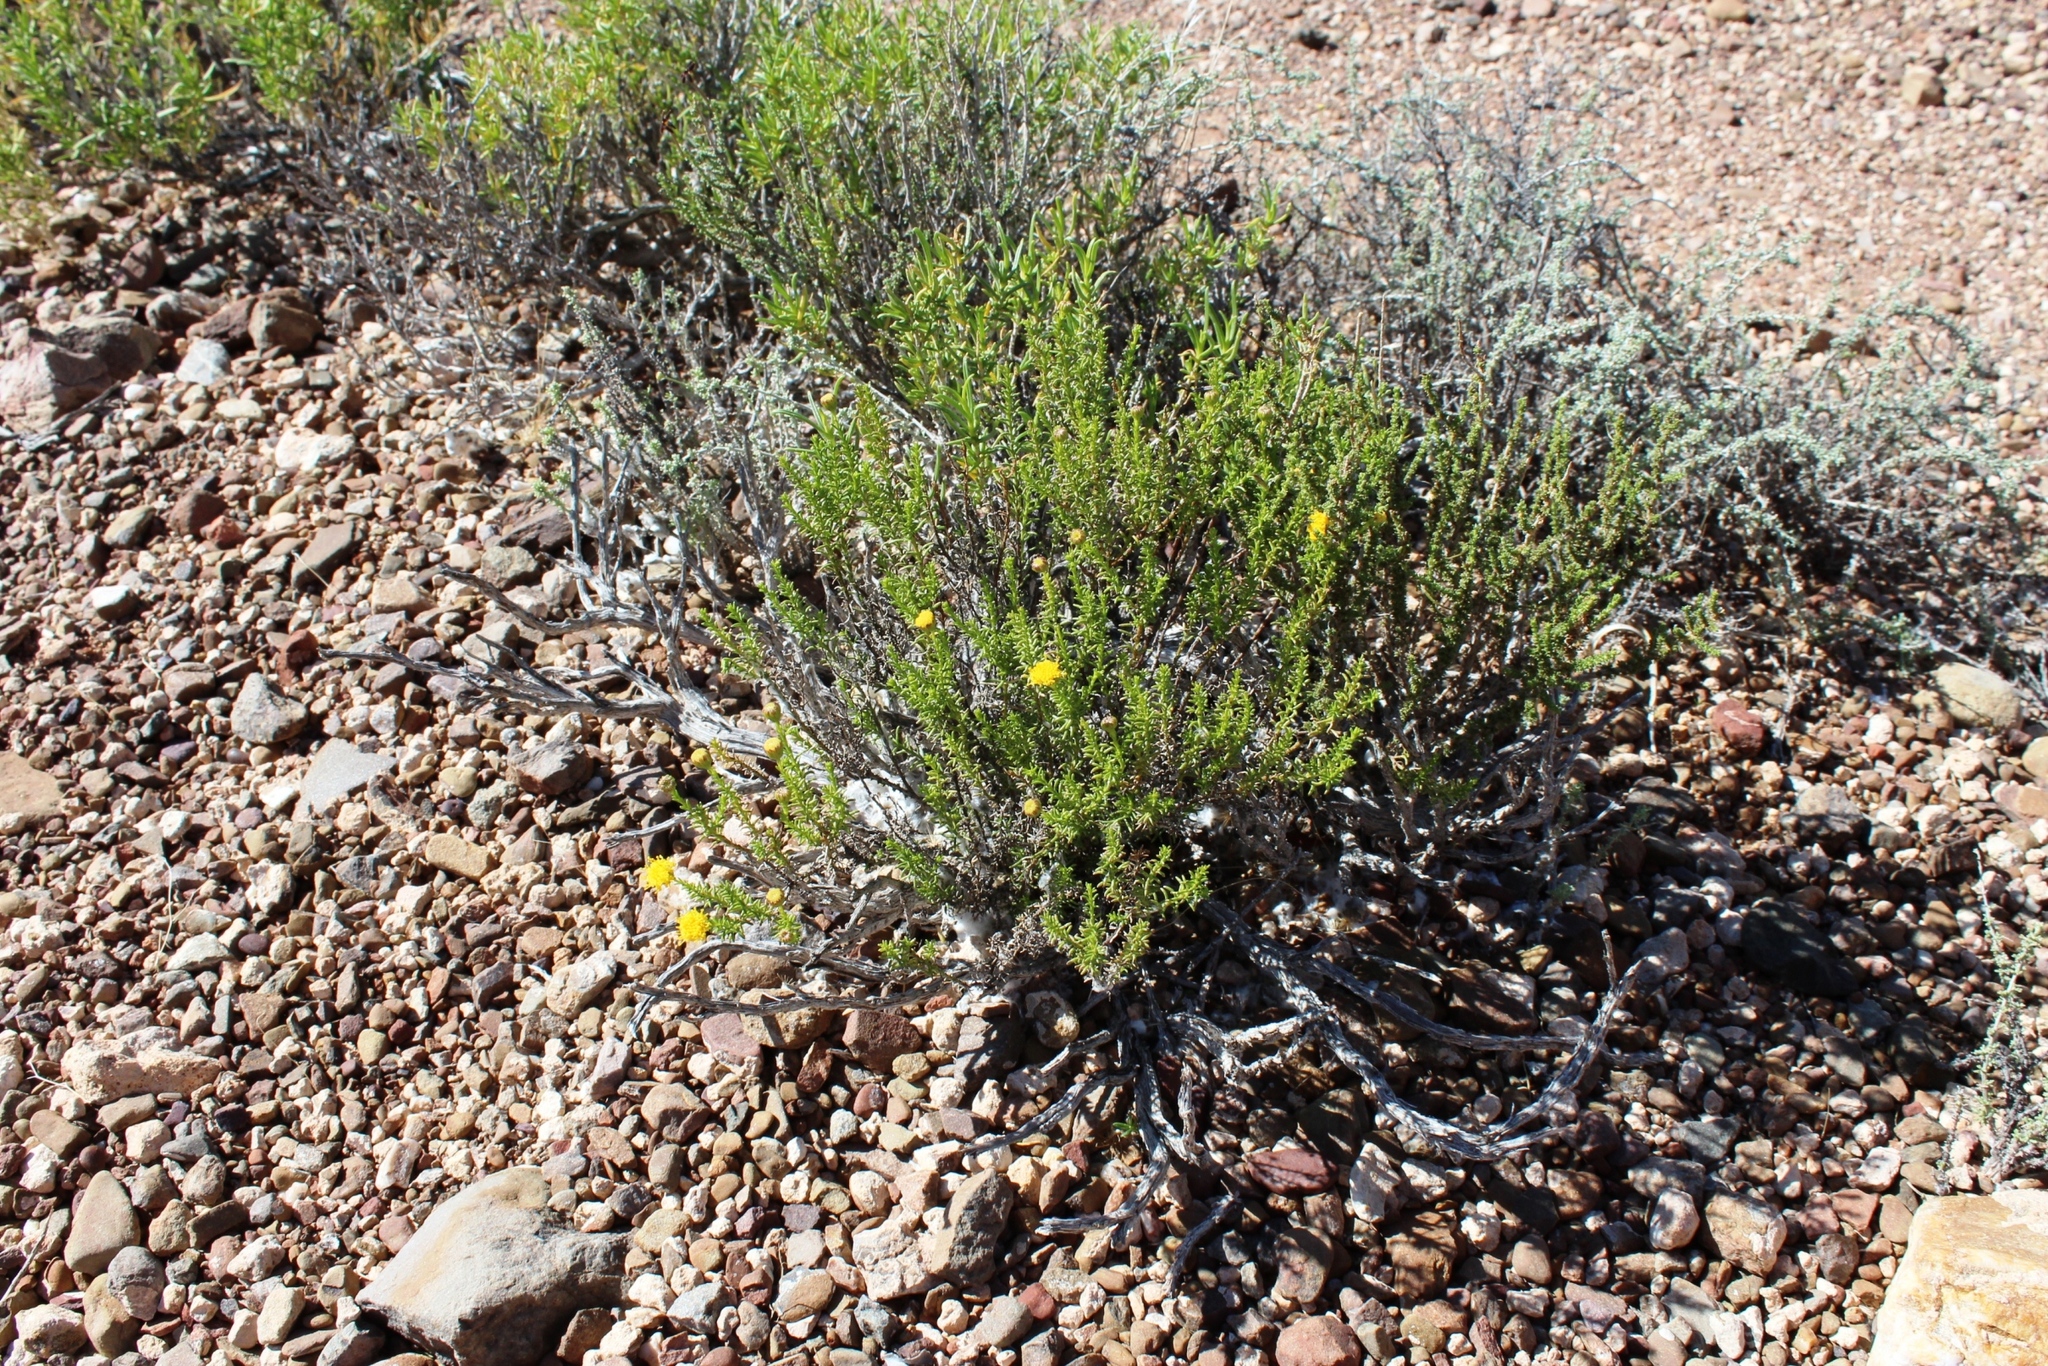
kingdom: Plantae
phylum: Tracheophyta
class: Magnoliopsida
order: Asterales
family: Asteraceae
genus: Chrysocoma
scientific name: Chrysocoma ciliata
